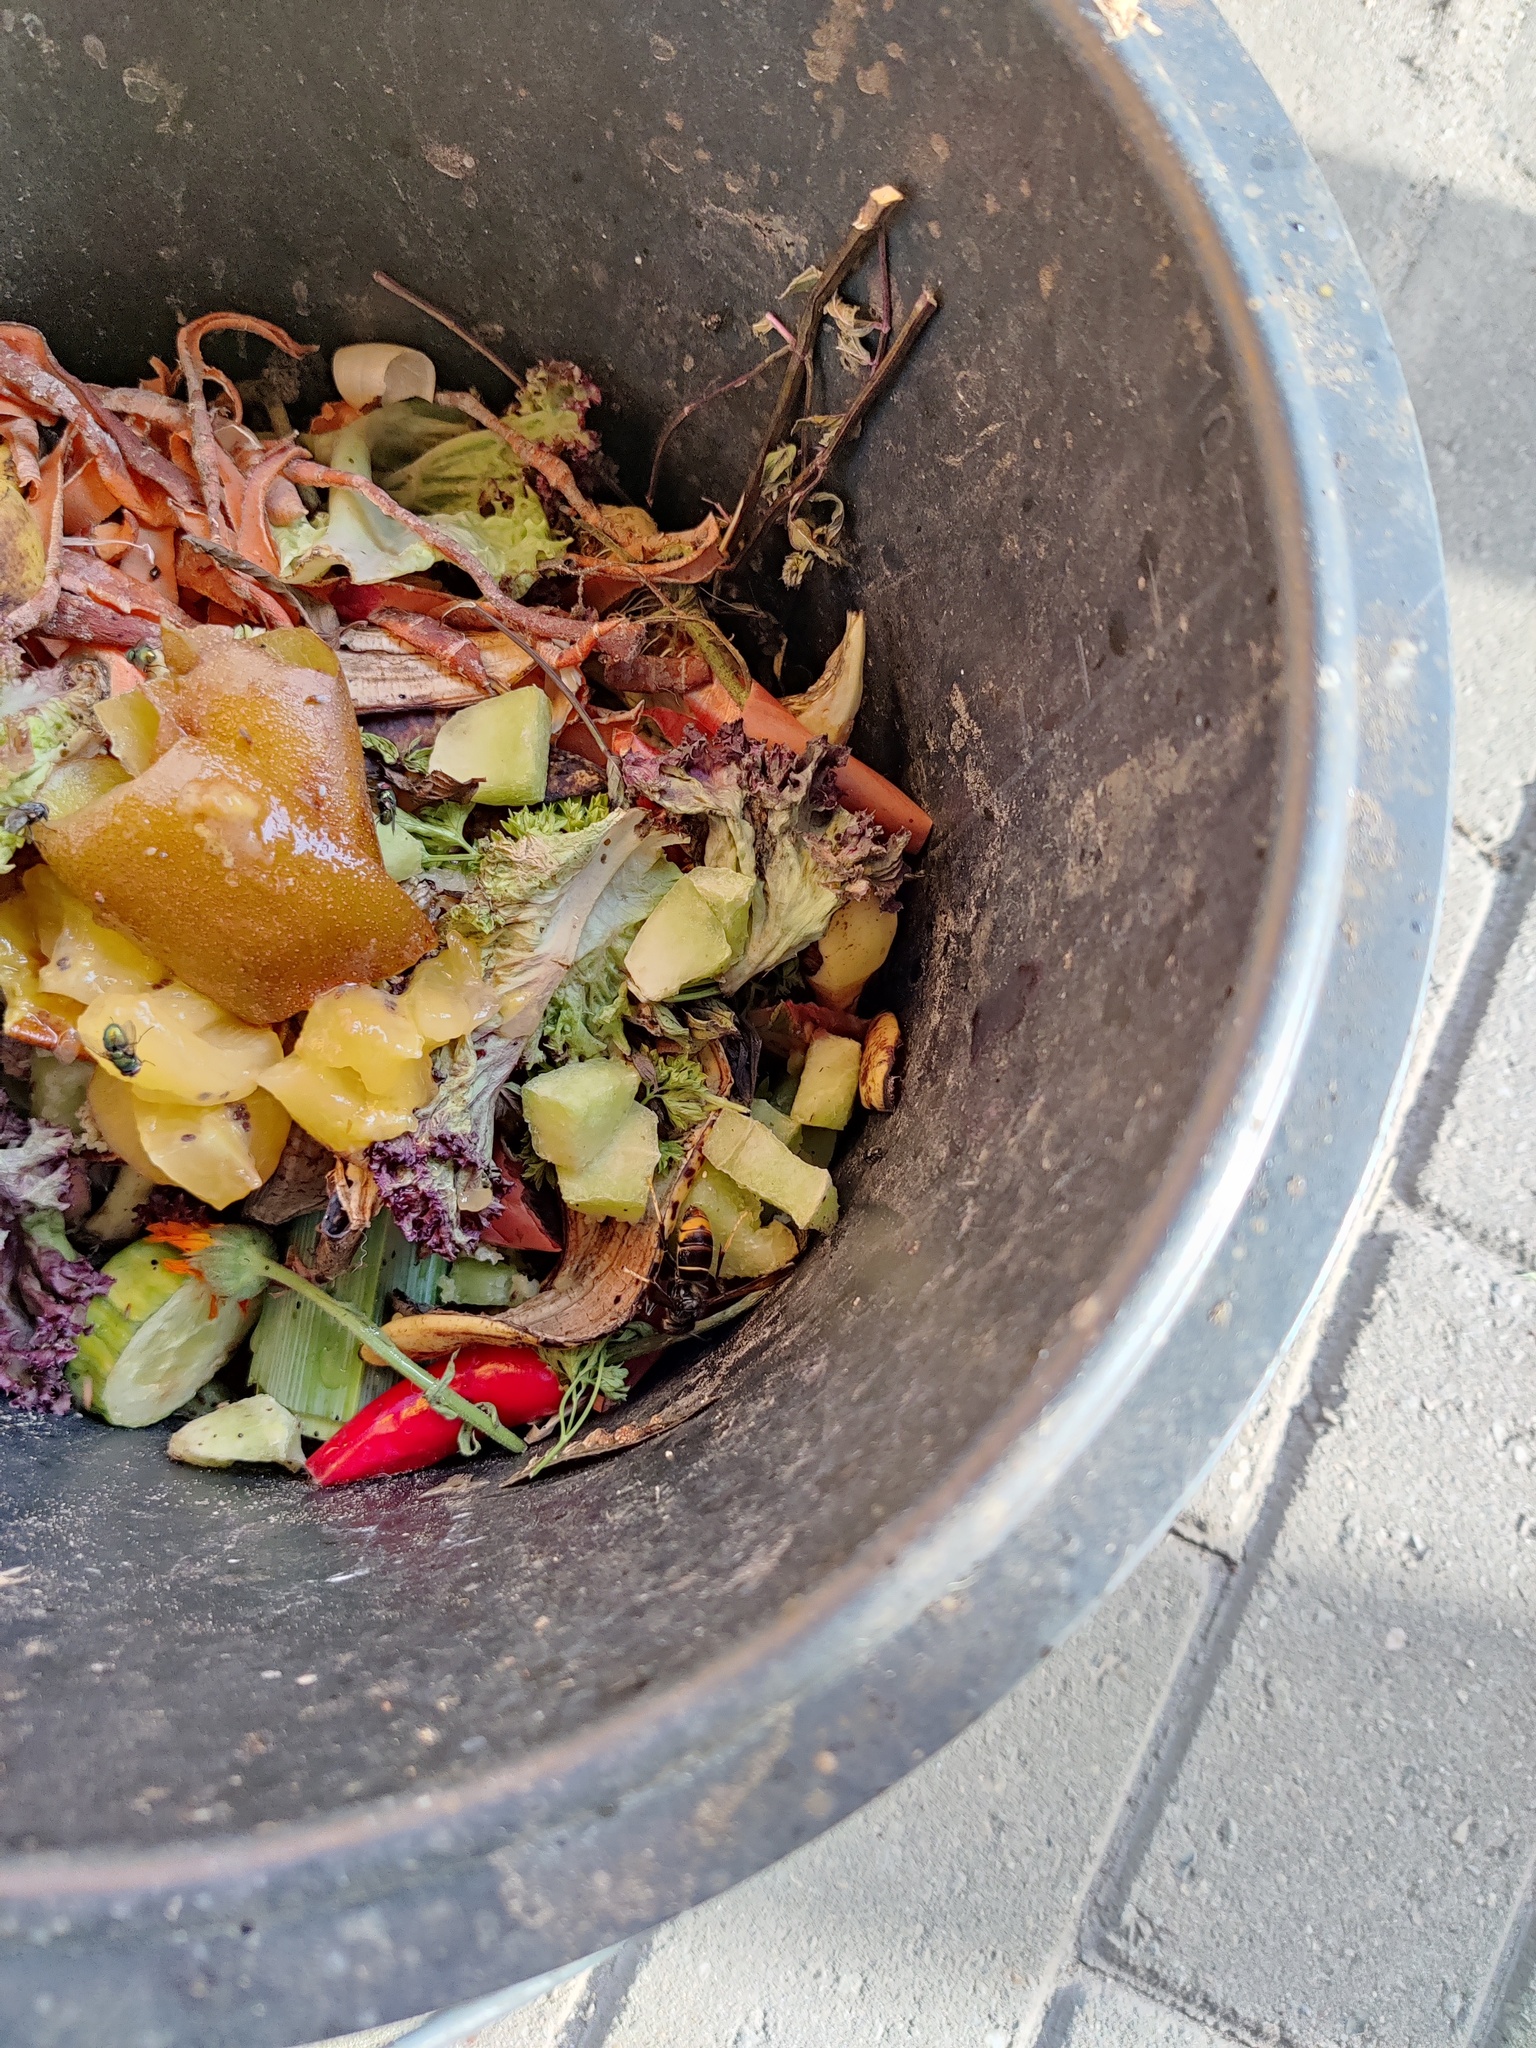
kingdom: Animalia
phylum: Arthropoda
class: Insecta
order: Hymenoptera
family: Vespidae
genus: Vespa
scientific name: Vespa velutina
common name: Asian hornet
